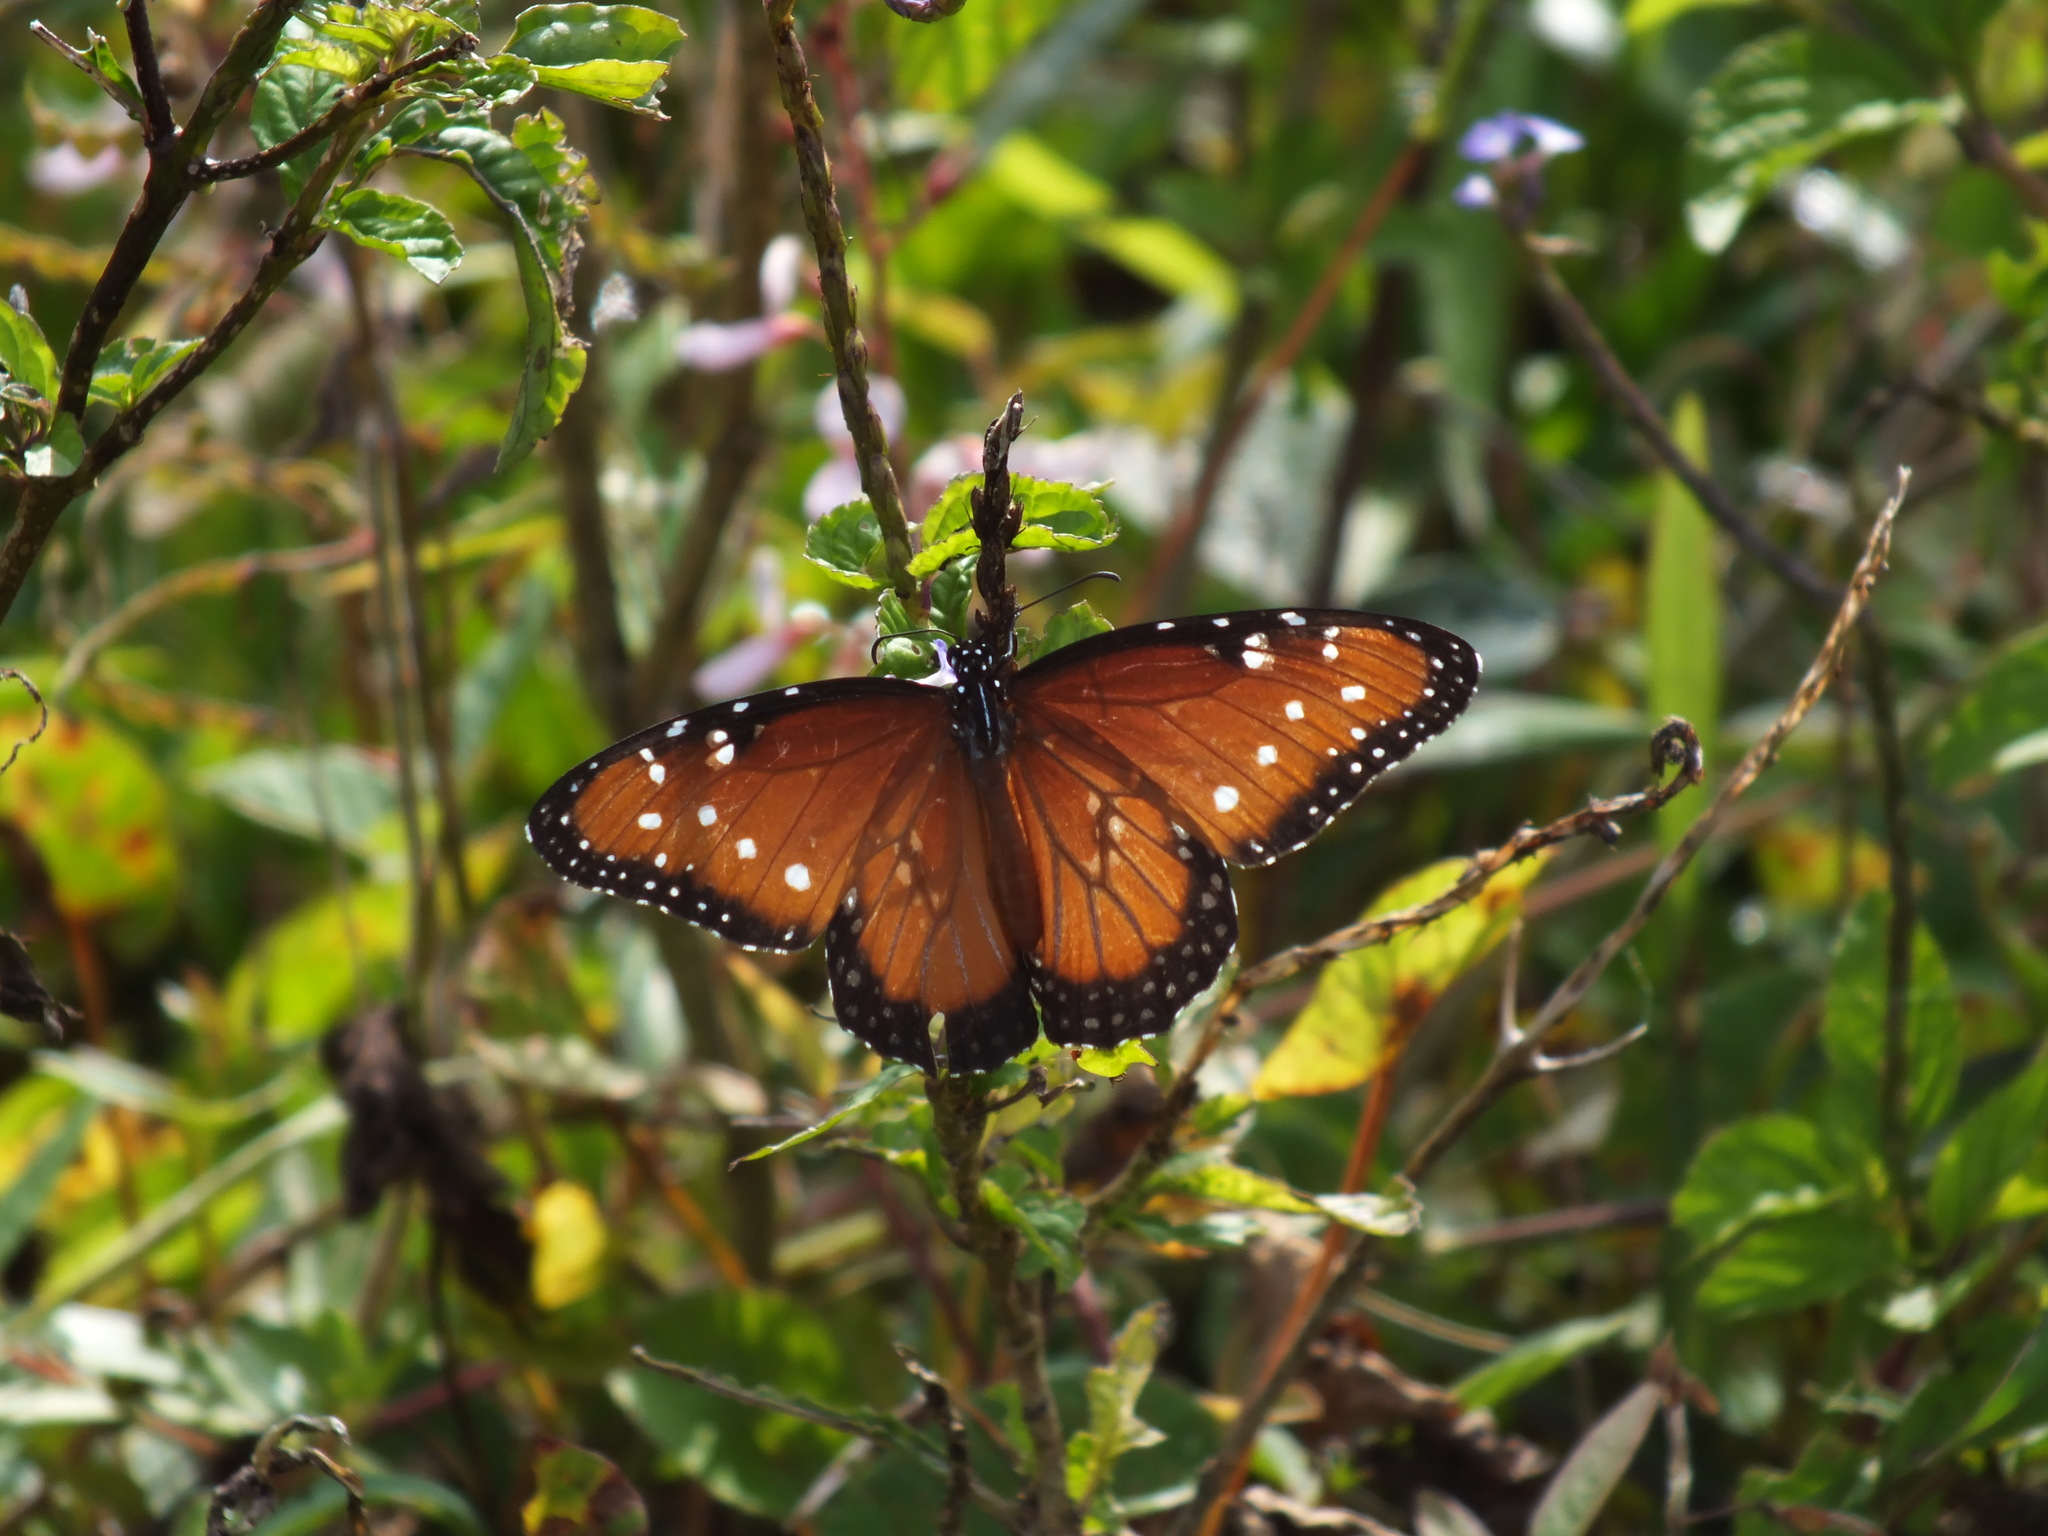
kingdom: Animalia
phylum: Arthropoda
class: Insecta
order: Lepidoptera
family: Nymphalidae
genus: Danaus
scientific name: Danaus gilippus
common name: Queen
